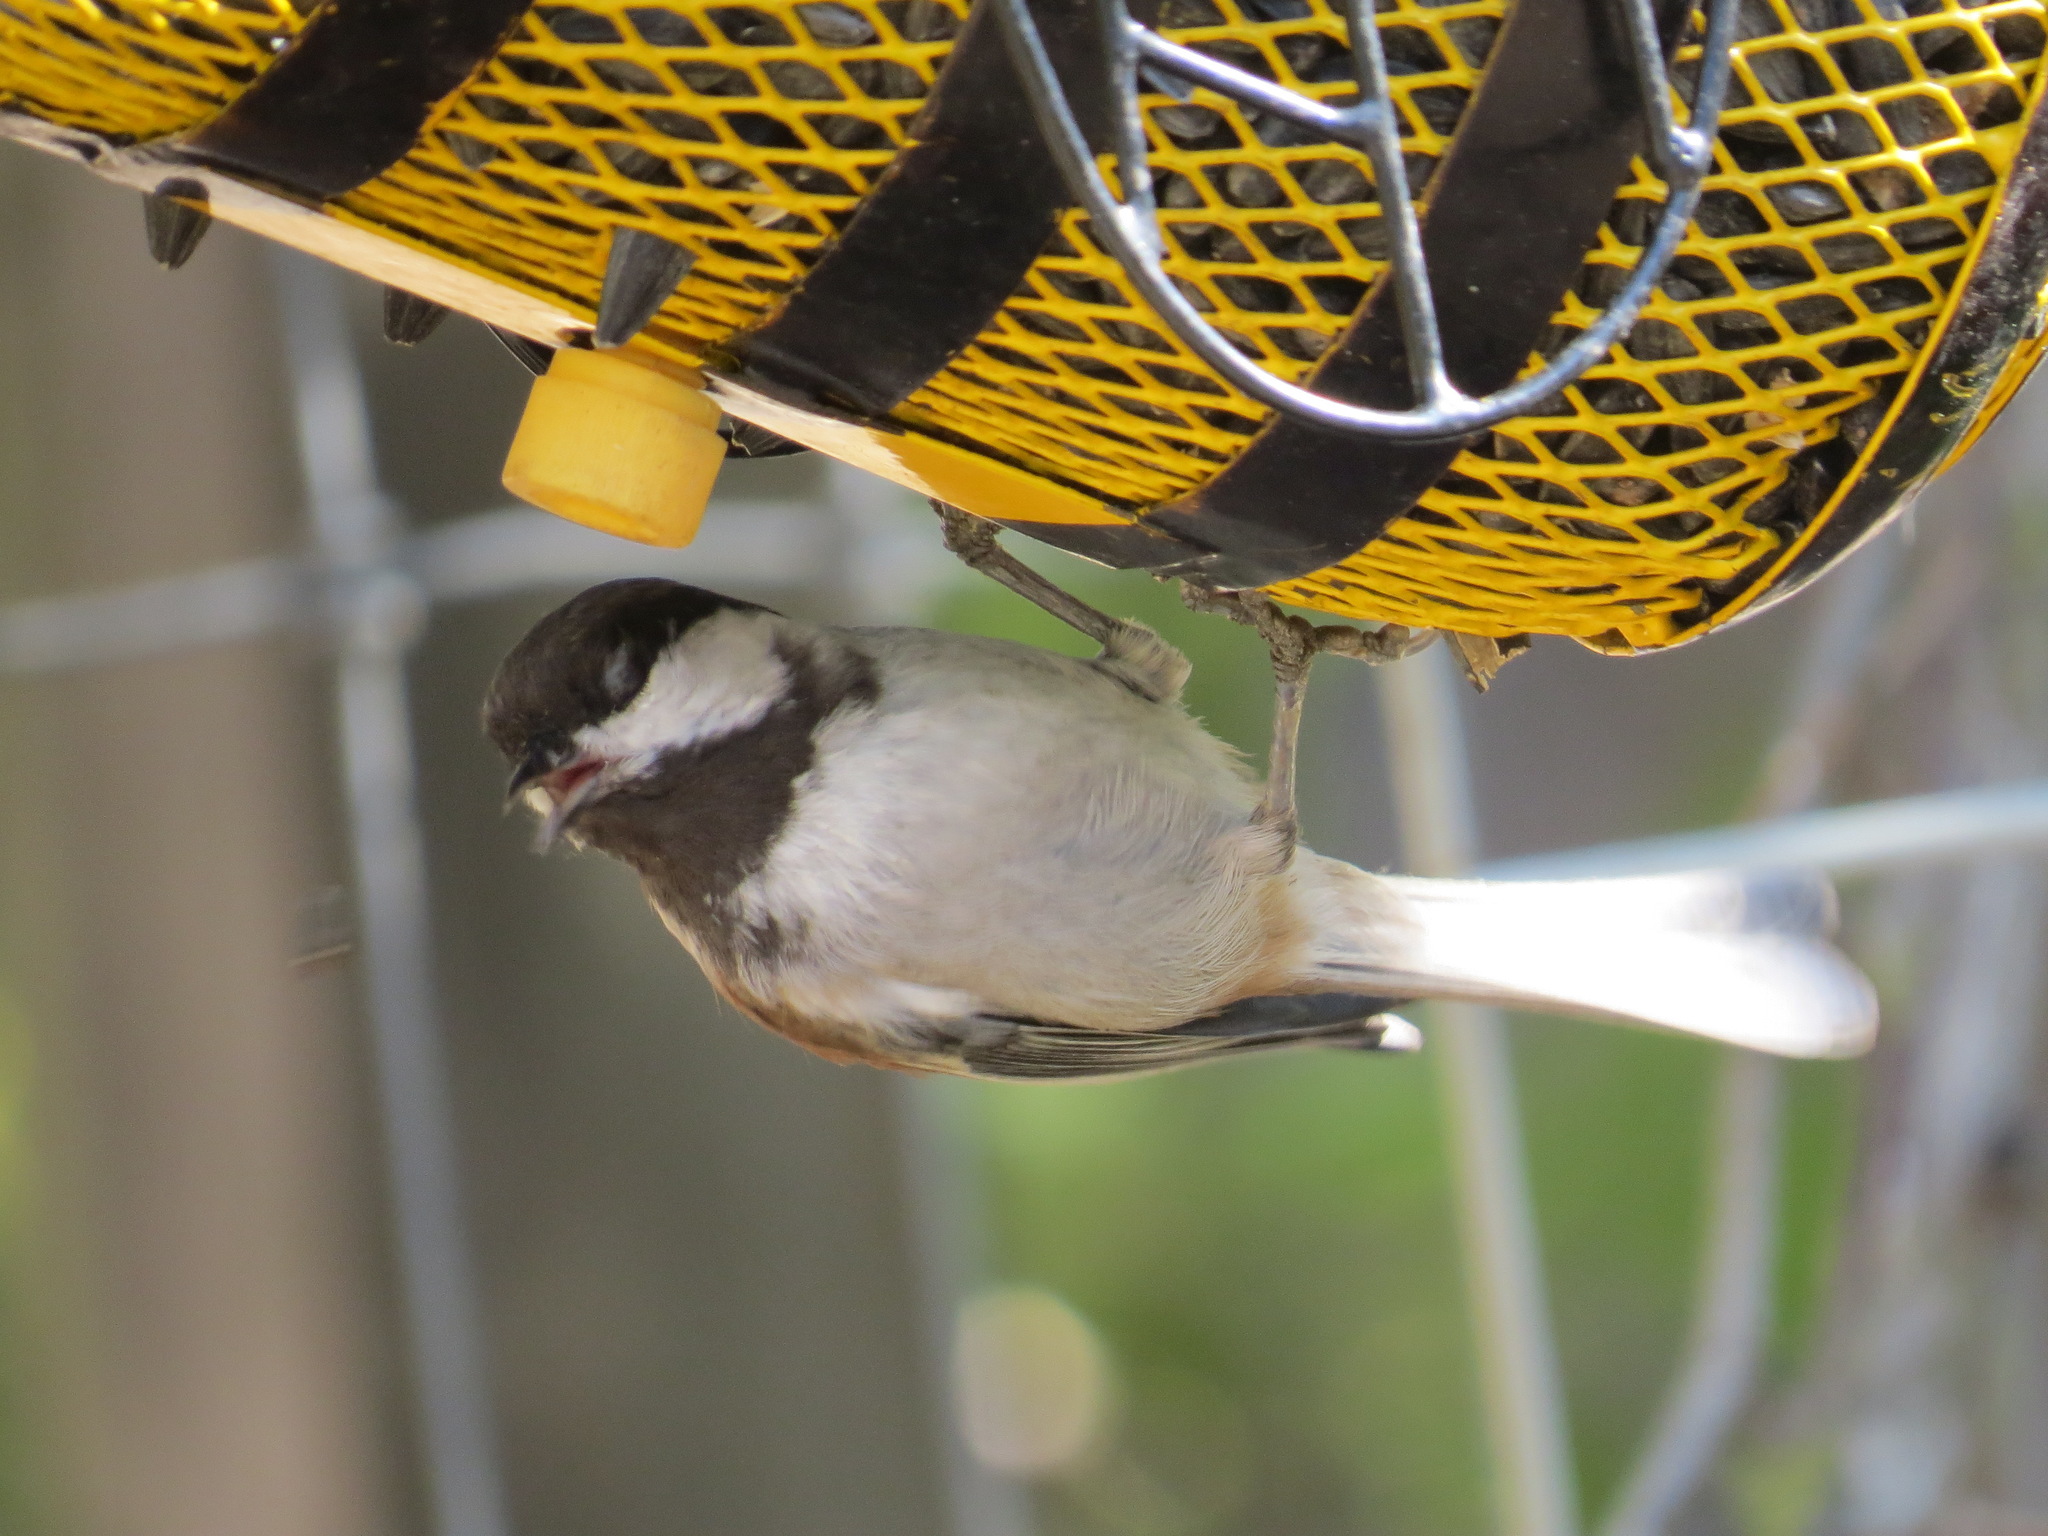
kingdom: Animalia
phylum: Chordata
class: Aves
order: Passeriformes
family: Paridae
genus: Poecile
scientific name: Poecile rufescens
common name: Chestnut-backed chickadee
